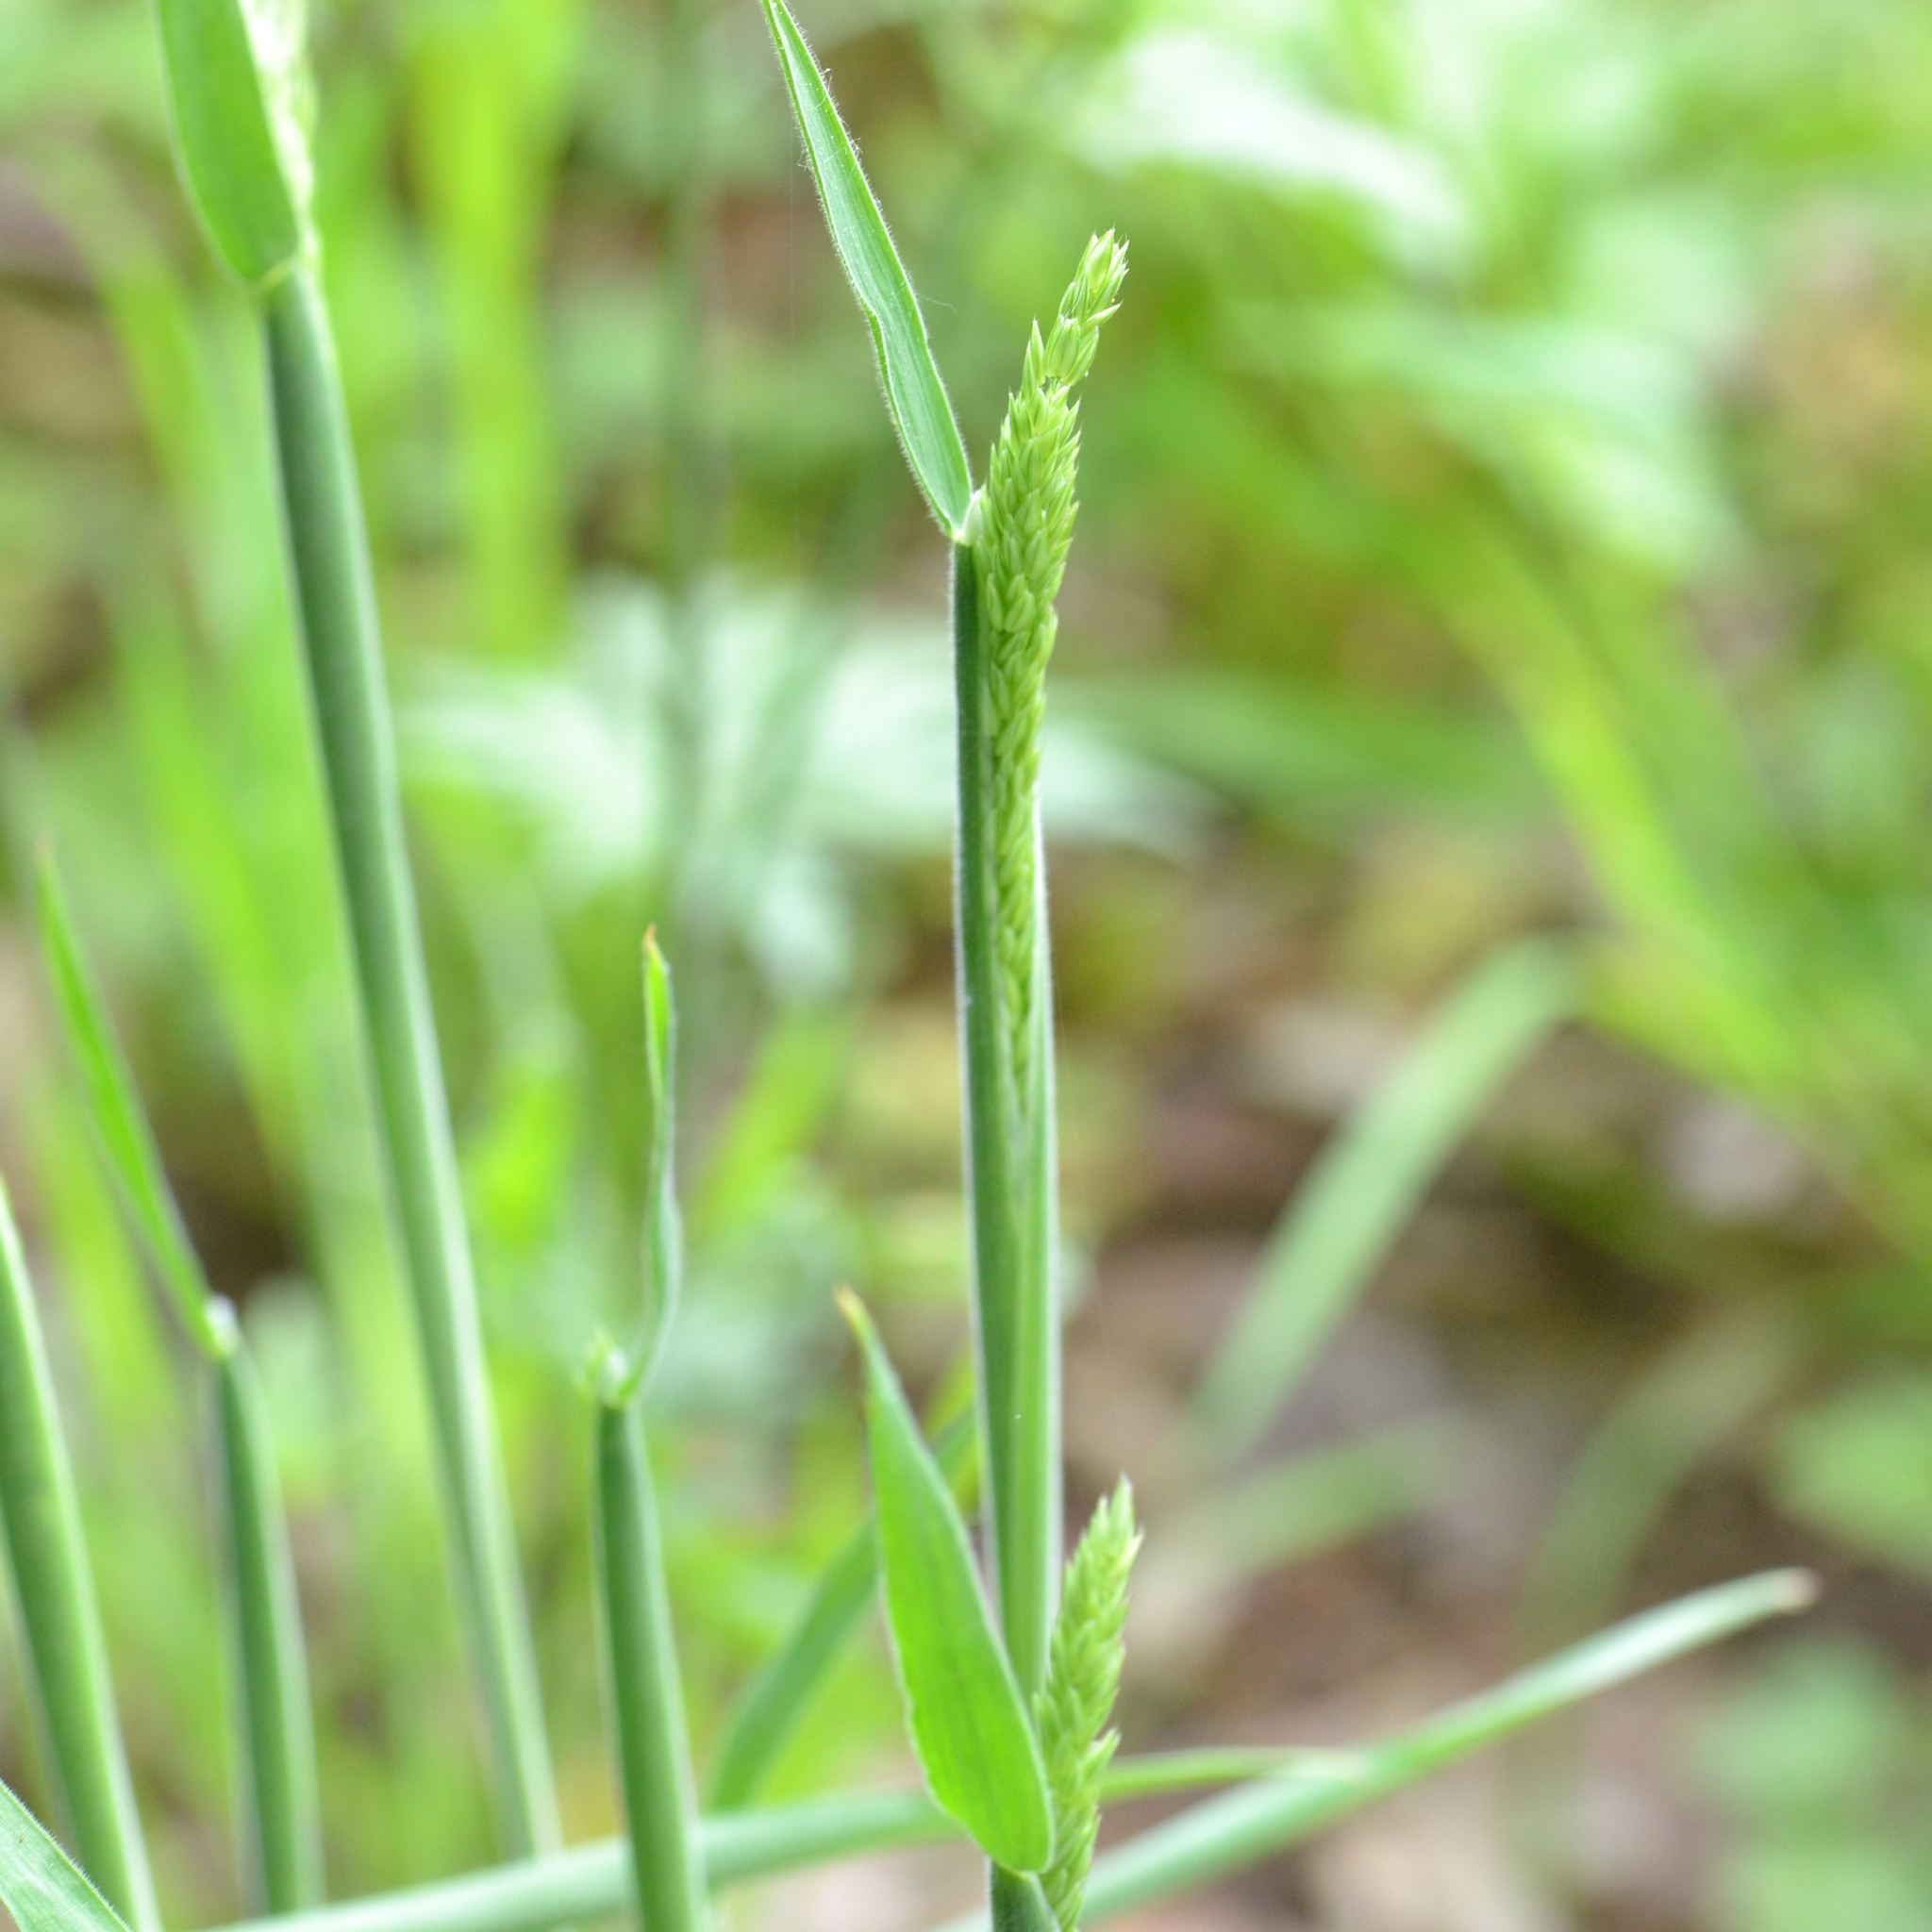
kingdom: Plantae
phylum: Tracheophyta
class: Liliopsida
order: Poales
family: Poaceae
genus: Dactylis
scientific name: Dactylis glomerata
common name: Orchardgrass
